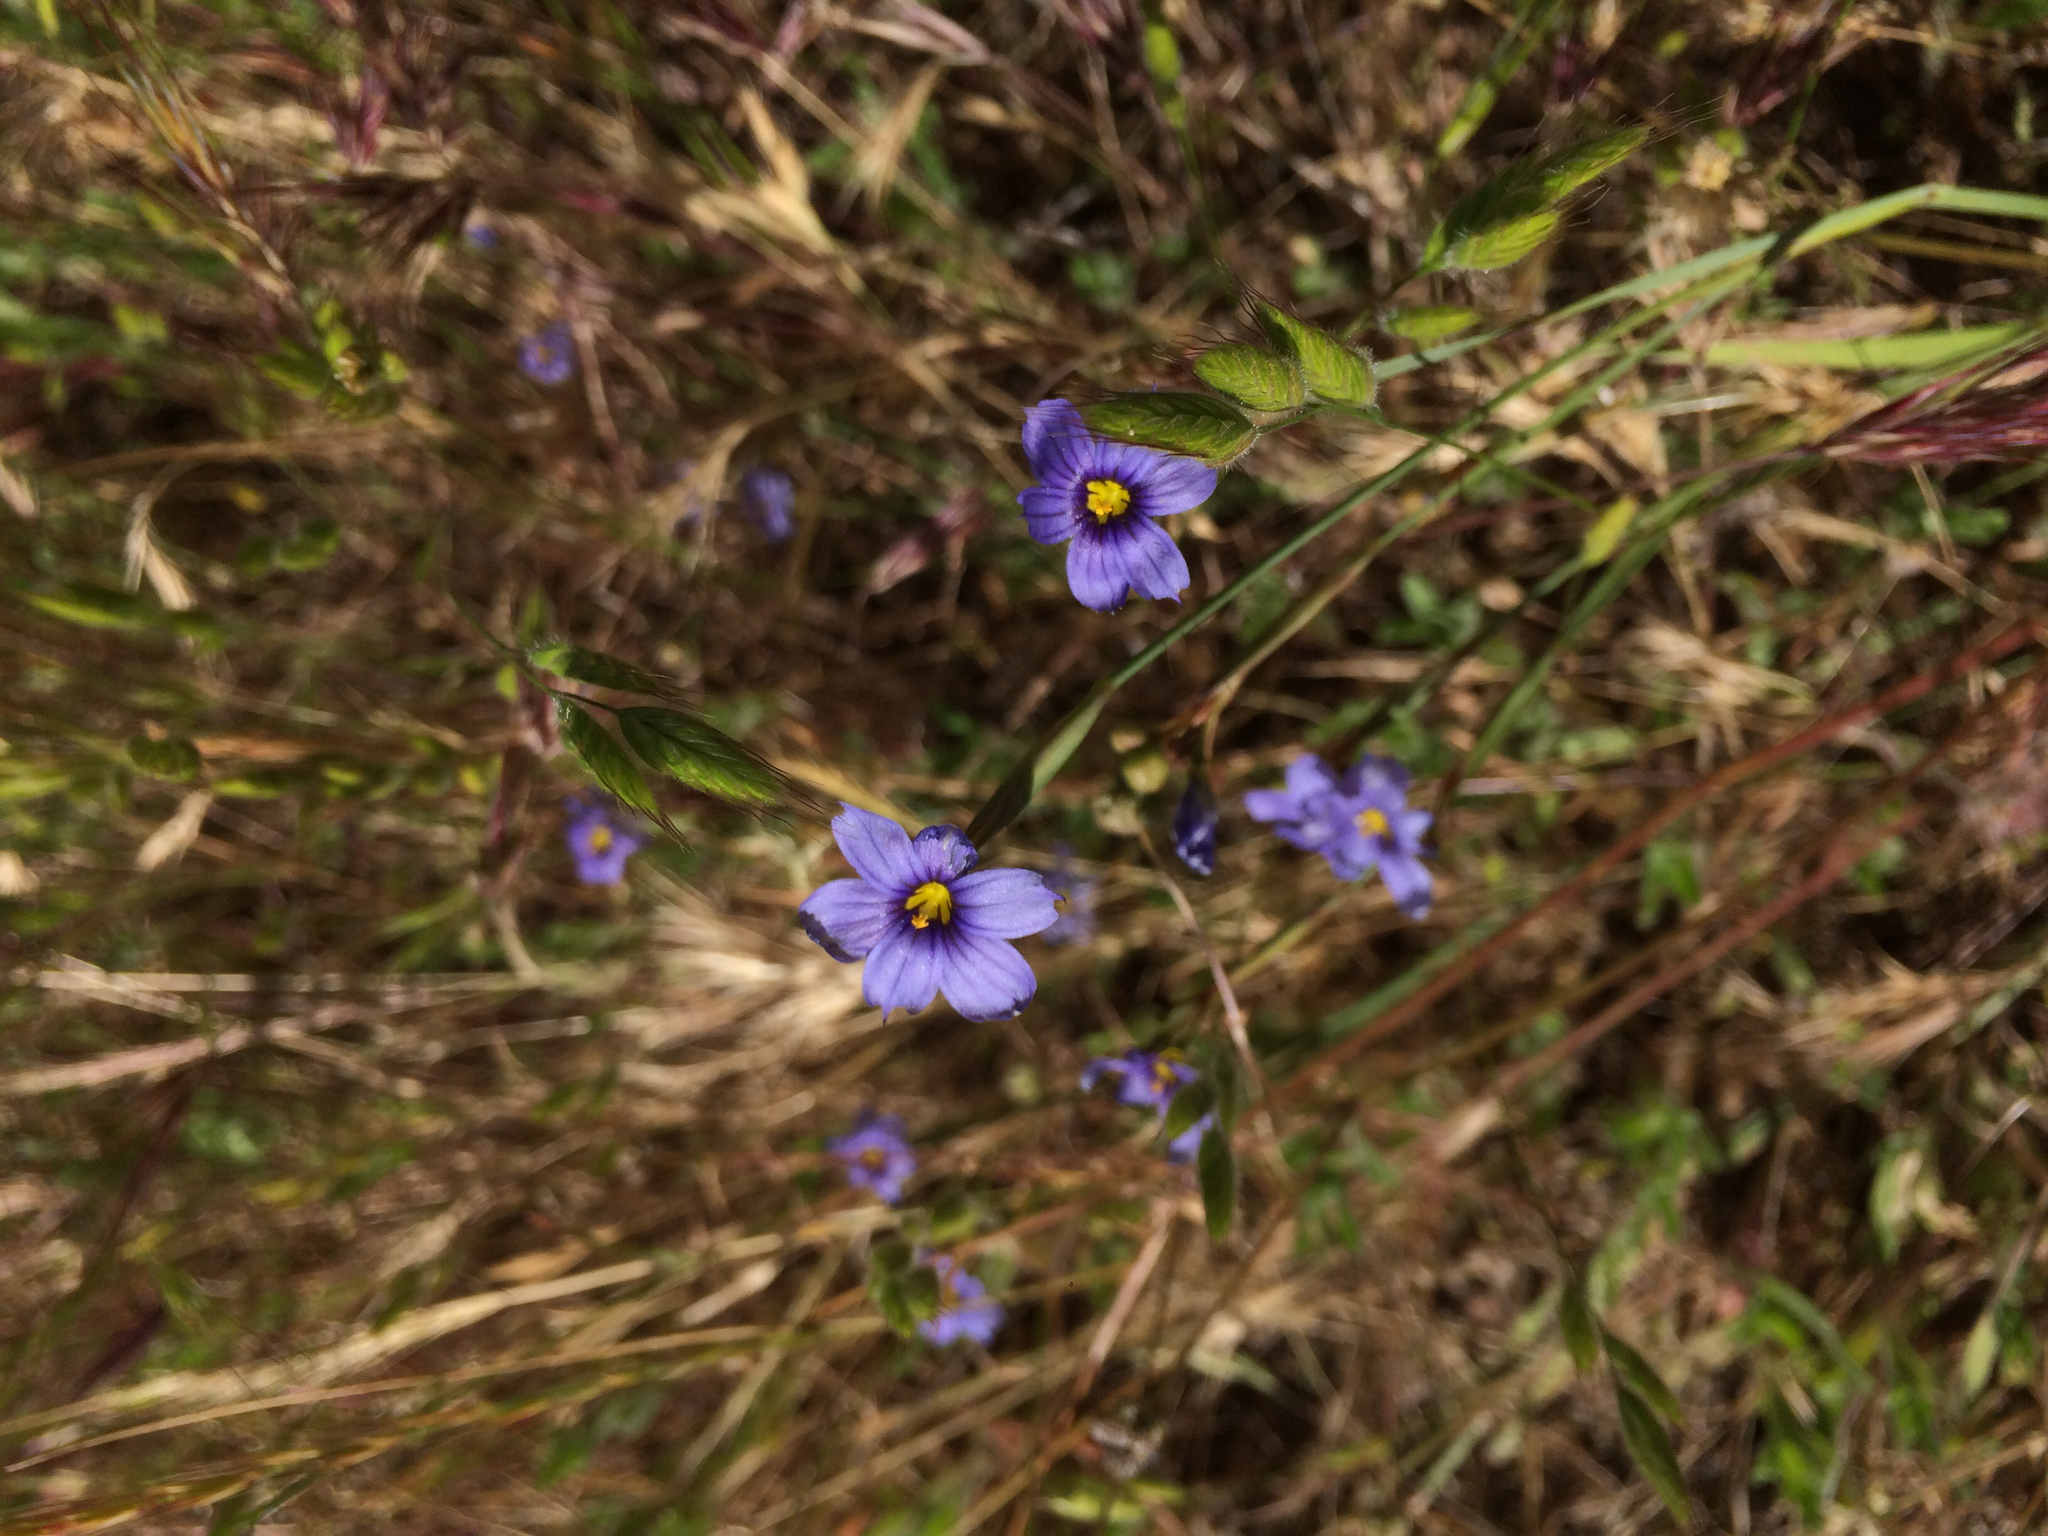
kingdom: Plantae
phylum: Tracheophyta
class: Liliopsida
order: Asparagales
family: Iridaceae
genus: Sisyrinchium
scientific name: Sisyrinchium bellum
